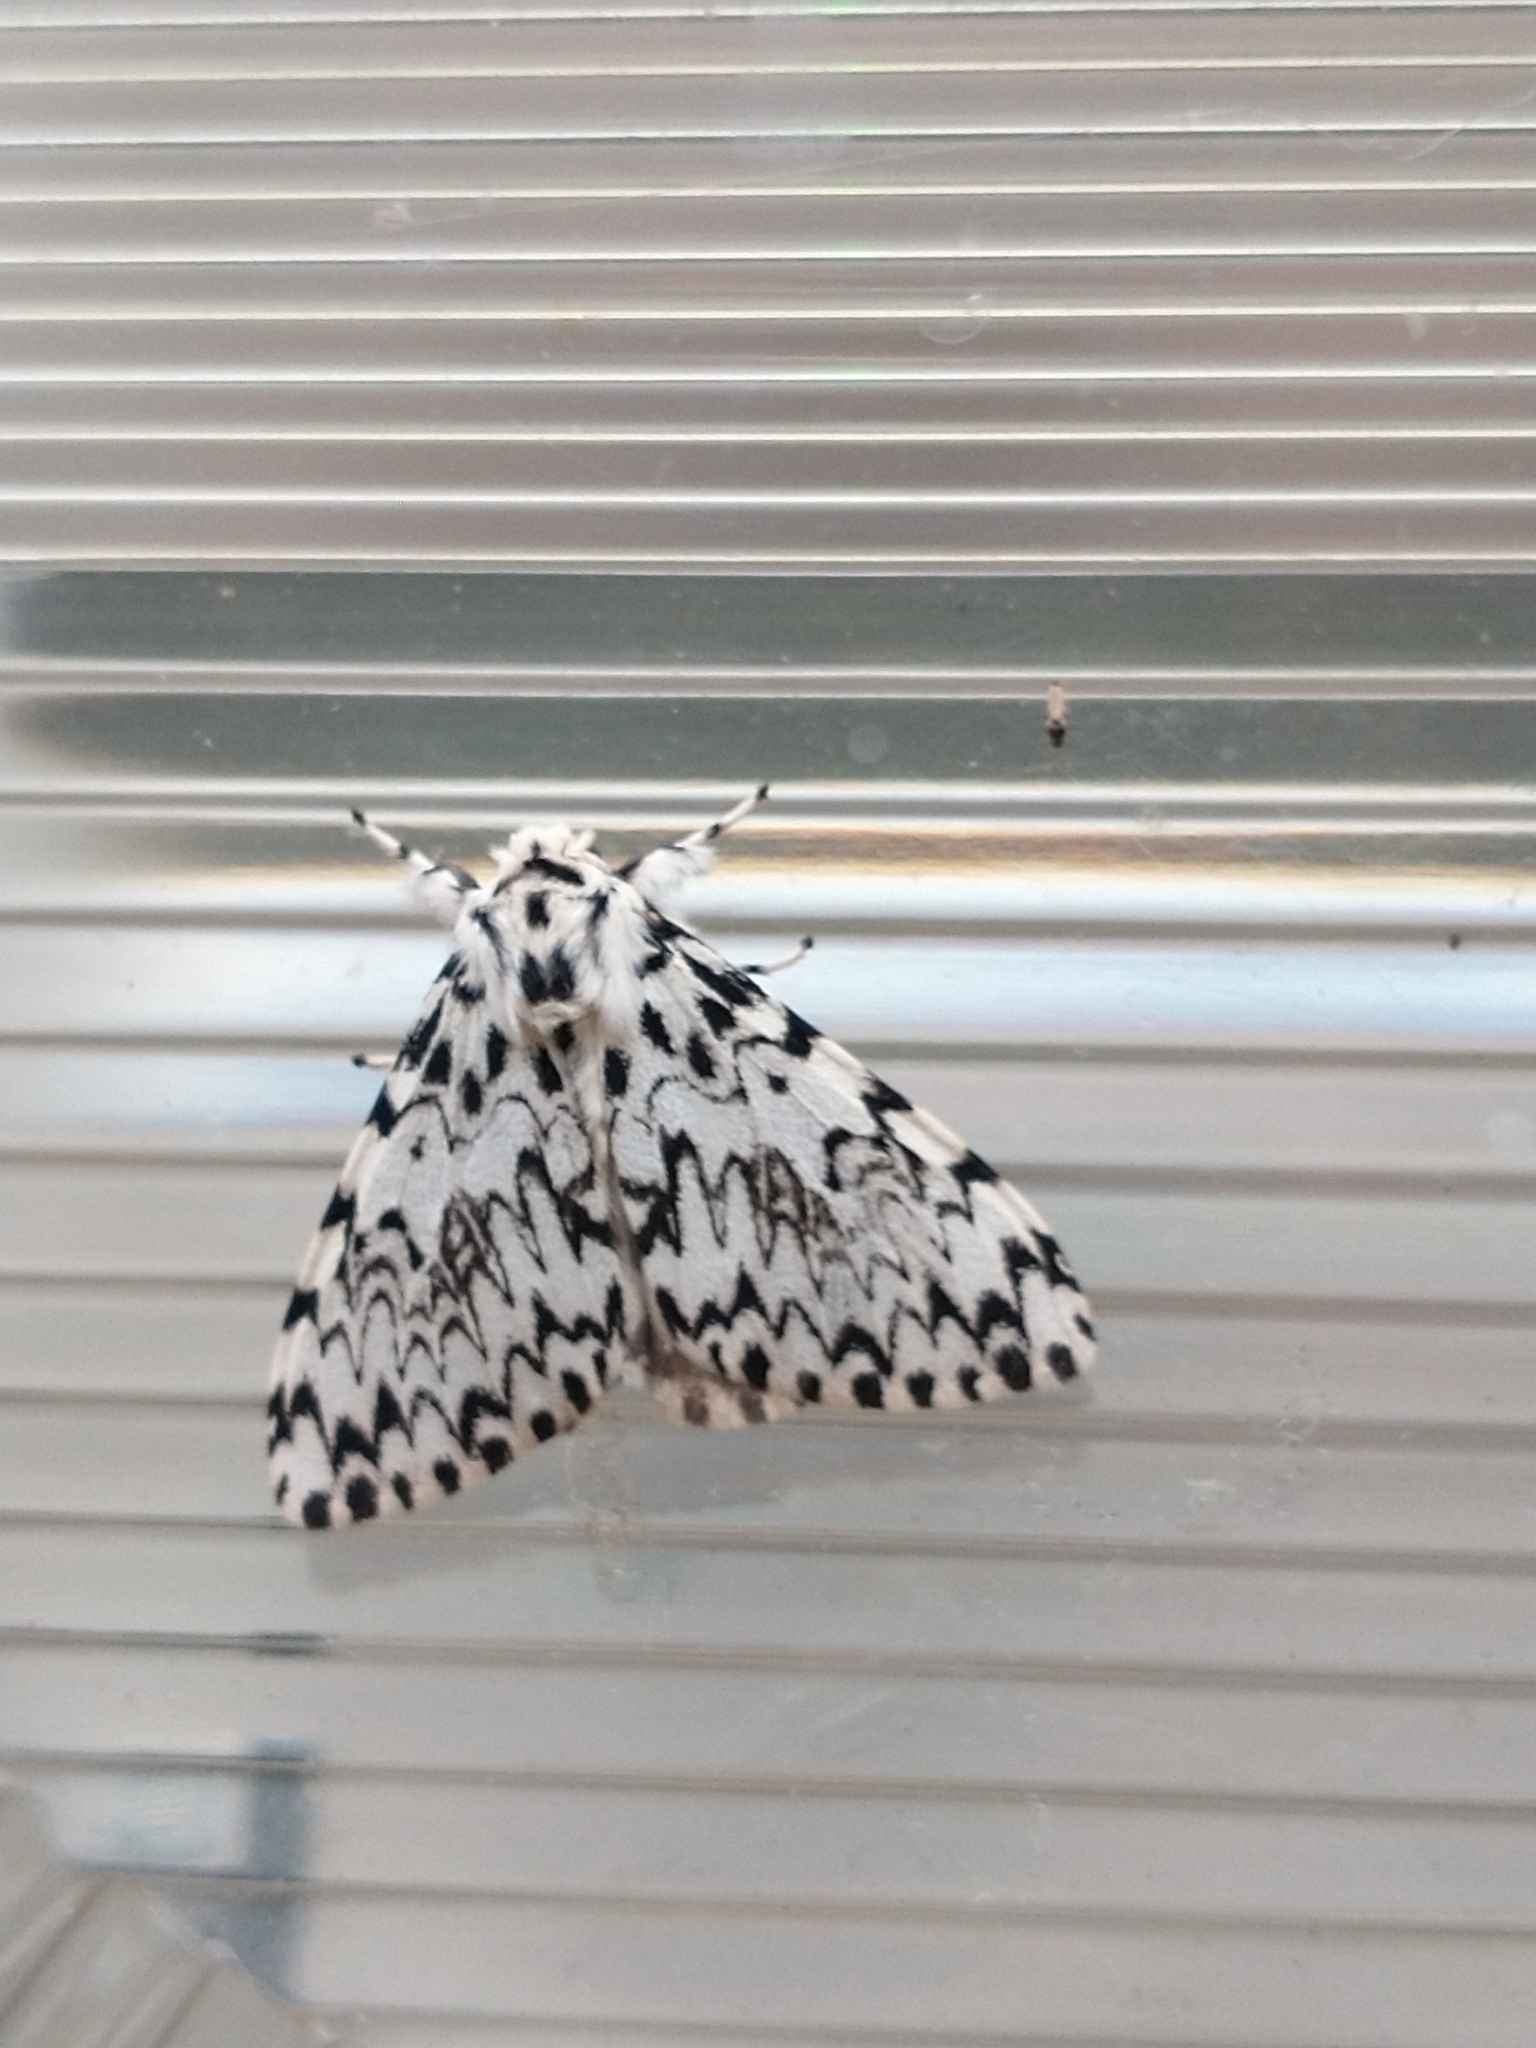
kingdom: Animalia
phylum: Arthropoda
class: Insecta
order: Lepidoptera
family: Erebidae
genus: Lymantria
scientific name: Lymantria monacha
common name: Black arches
